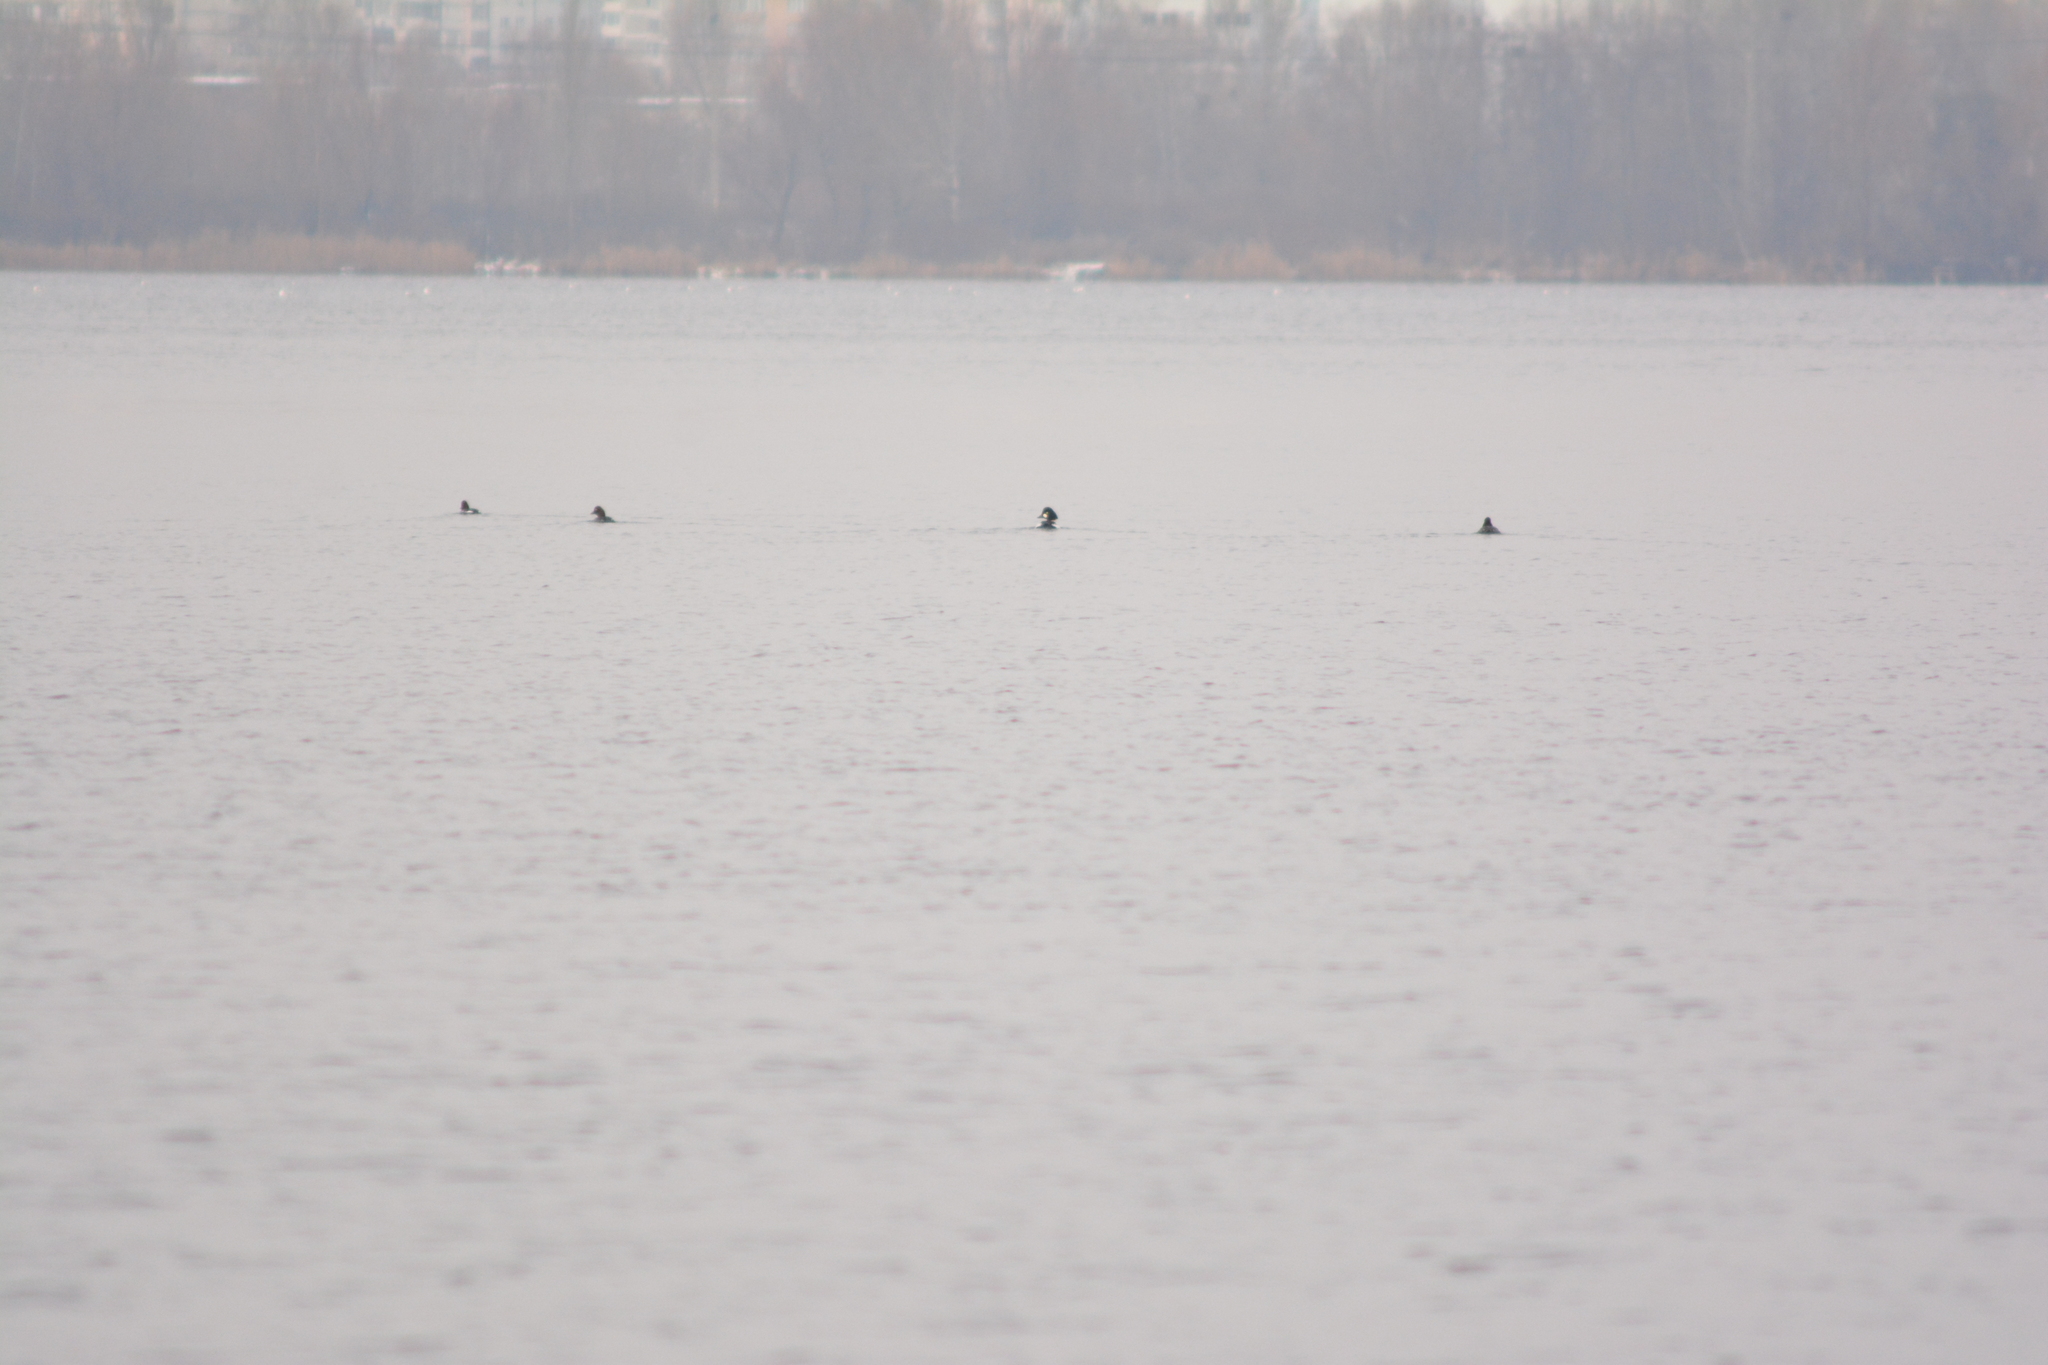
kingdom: Animalia
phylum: Chordata
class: Aves
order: Anseriformes
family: Anatidae
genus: Bucephala
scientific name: Bucephala clangula
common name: Common goldeneye
